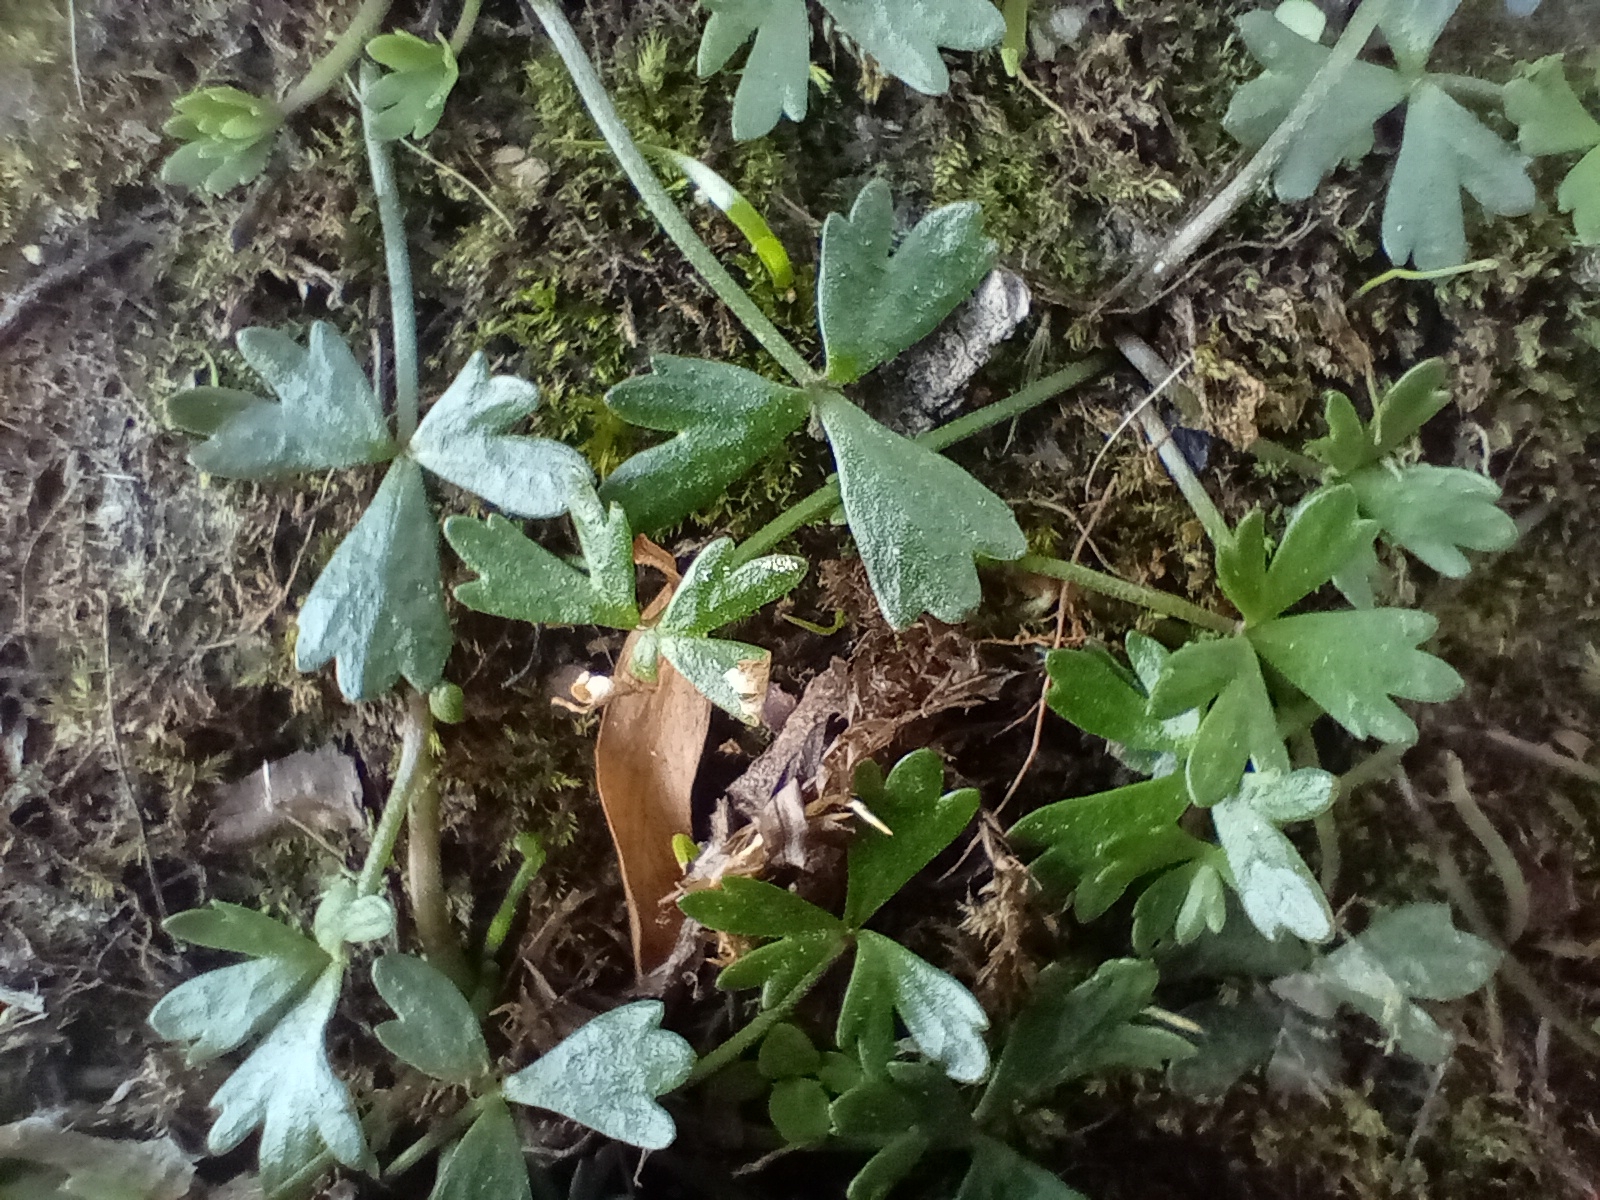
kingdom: Plantae
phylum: Tracheophyta
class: Magnoliopsida
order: Ranunculales
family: Ranunculaceae
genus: Ranunculus
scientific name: Ranunculus glabrifolius
